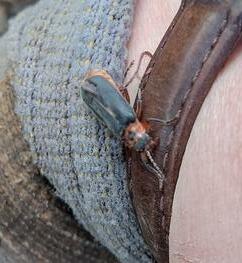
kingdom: Animalia
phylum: Arthropoda
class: Insecta
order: Coleoptera
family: Cantharidae
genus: Cantharis
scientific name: Cantharis rustica
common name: Soldier beetle
